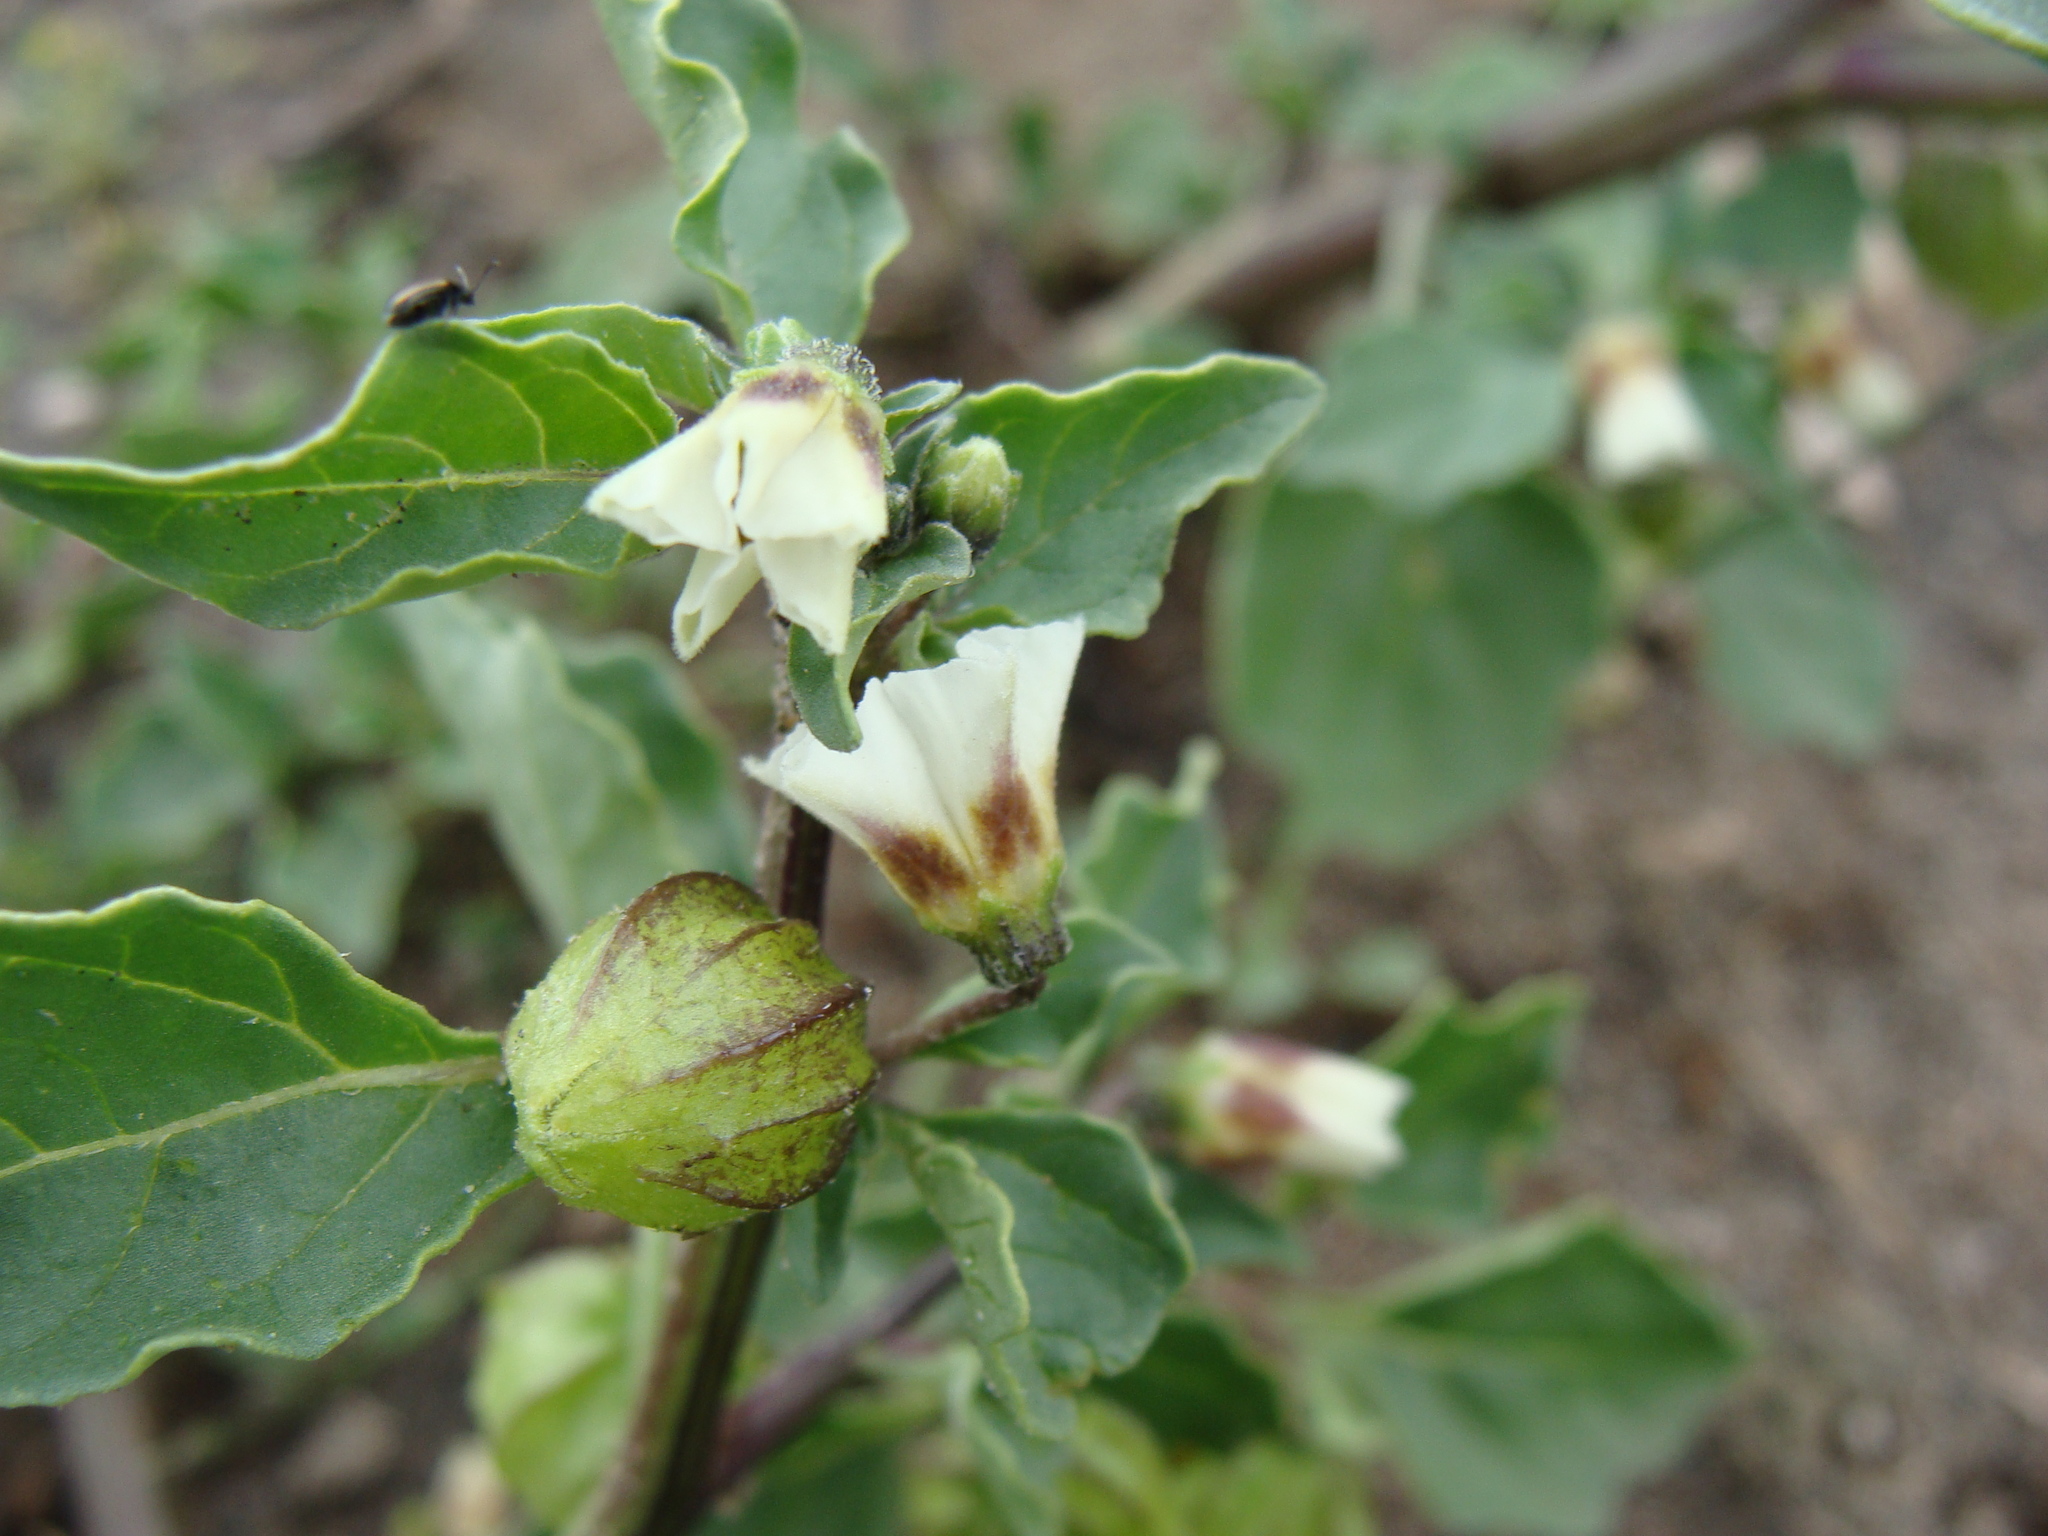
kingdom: Plantae
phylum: Tracheophyta
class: Magnoliopsida
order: Solanales
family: Solanaceae
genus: Physalis
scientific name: Physalis sulphurea
